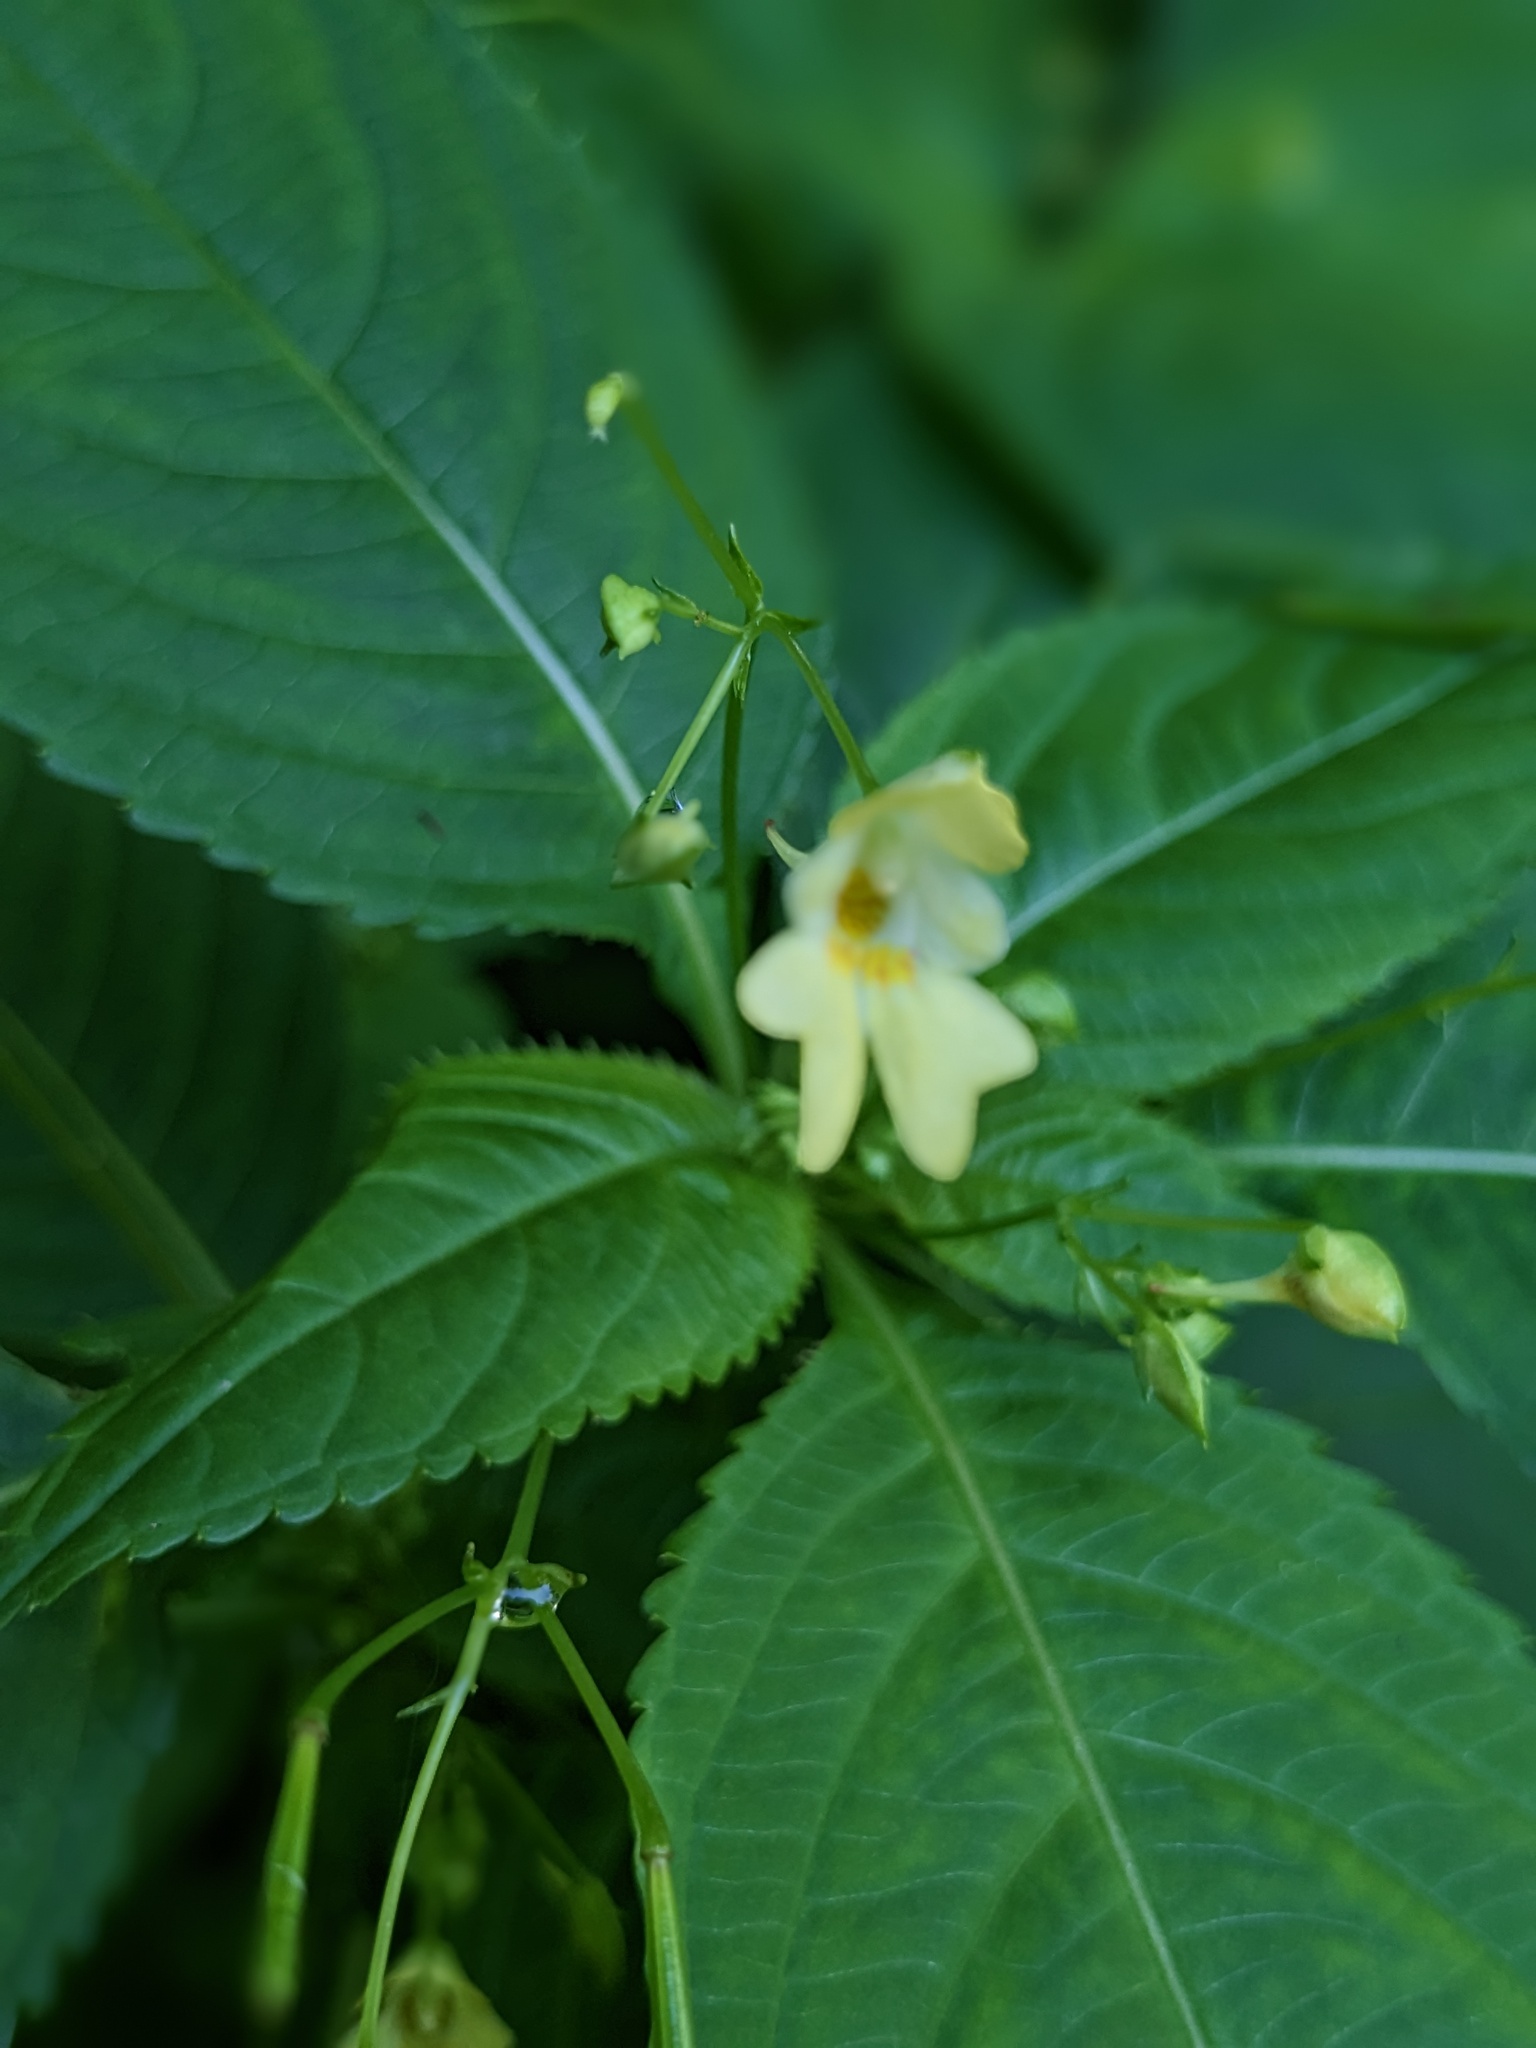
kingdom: Plantae
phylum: Tracheophyta
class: Magnoliopsida
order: Ericales
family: Balsaminaceae
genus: Impatiens
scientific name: Impatiens parviflora
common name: Small balsam
